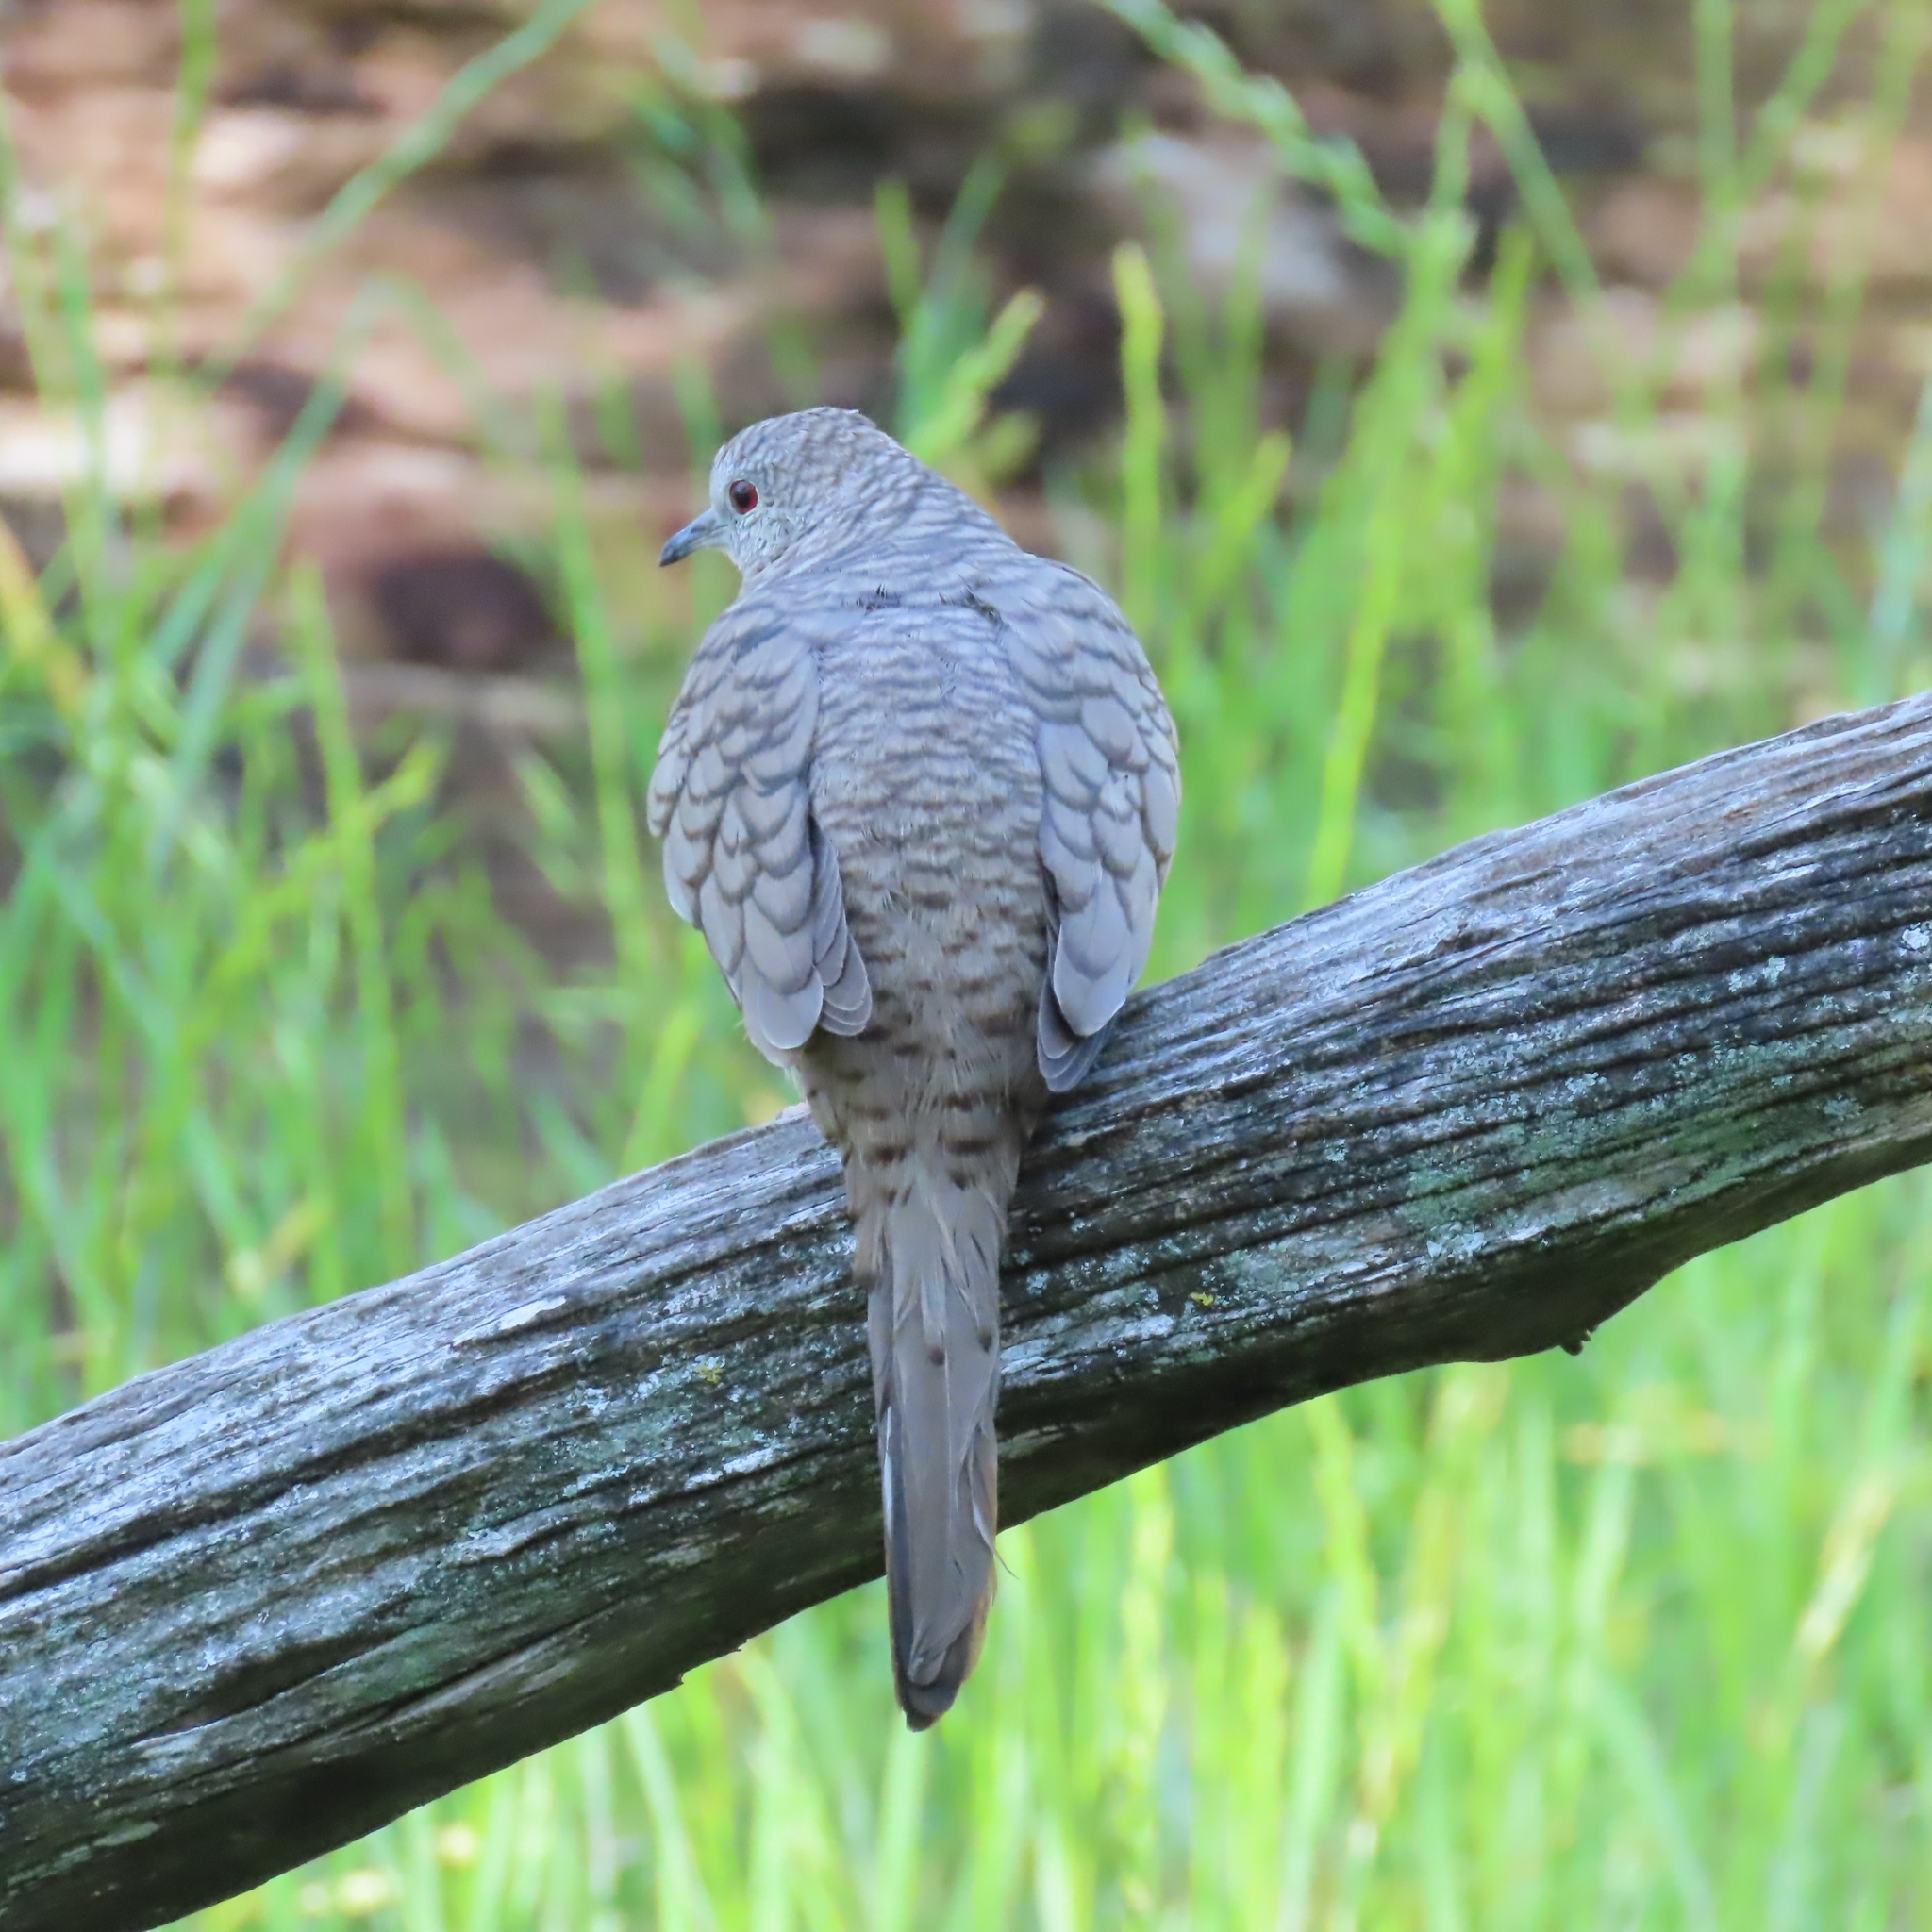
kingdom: Animalia
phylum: Chordata
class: Aves
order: Columbiformes
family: Columbidae
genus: Columbina
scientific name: Columbina inca
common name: Inca dove
